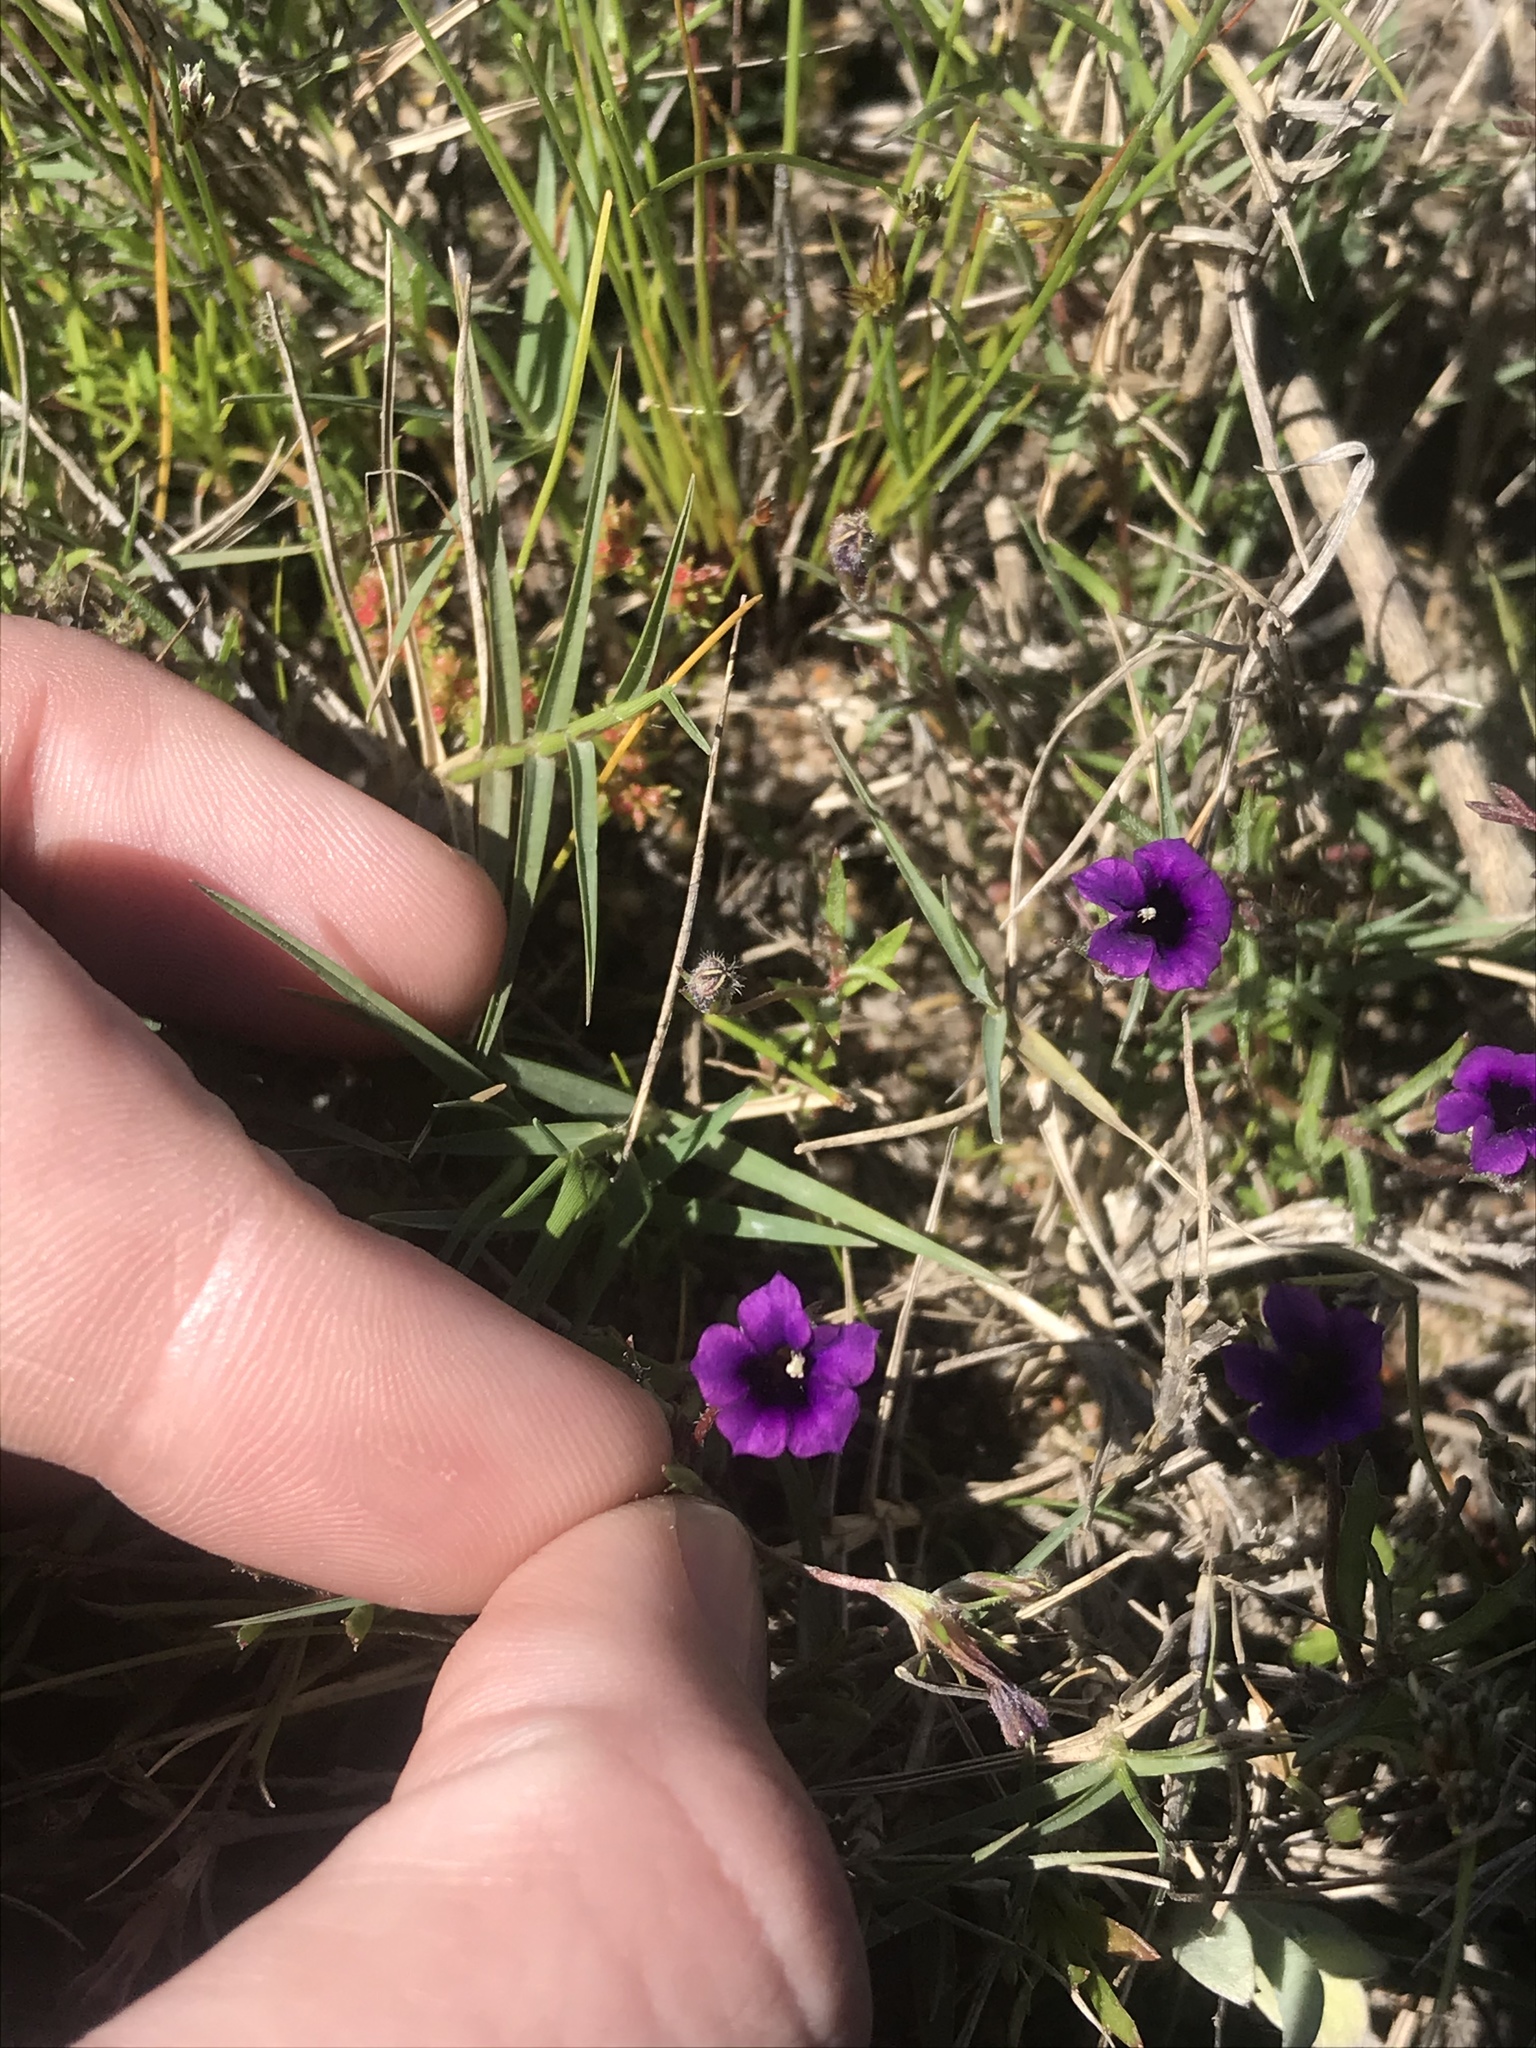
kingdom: Plantae
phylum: Tracheophyta
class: Magnoliopsida
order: Asterales
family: Campanulaceae
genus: Monopsis
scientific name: Monopsis debilis
